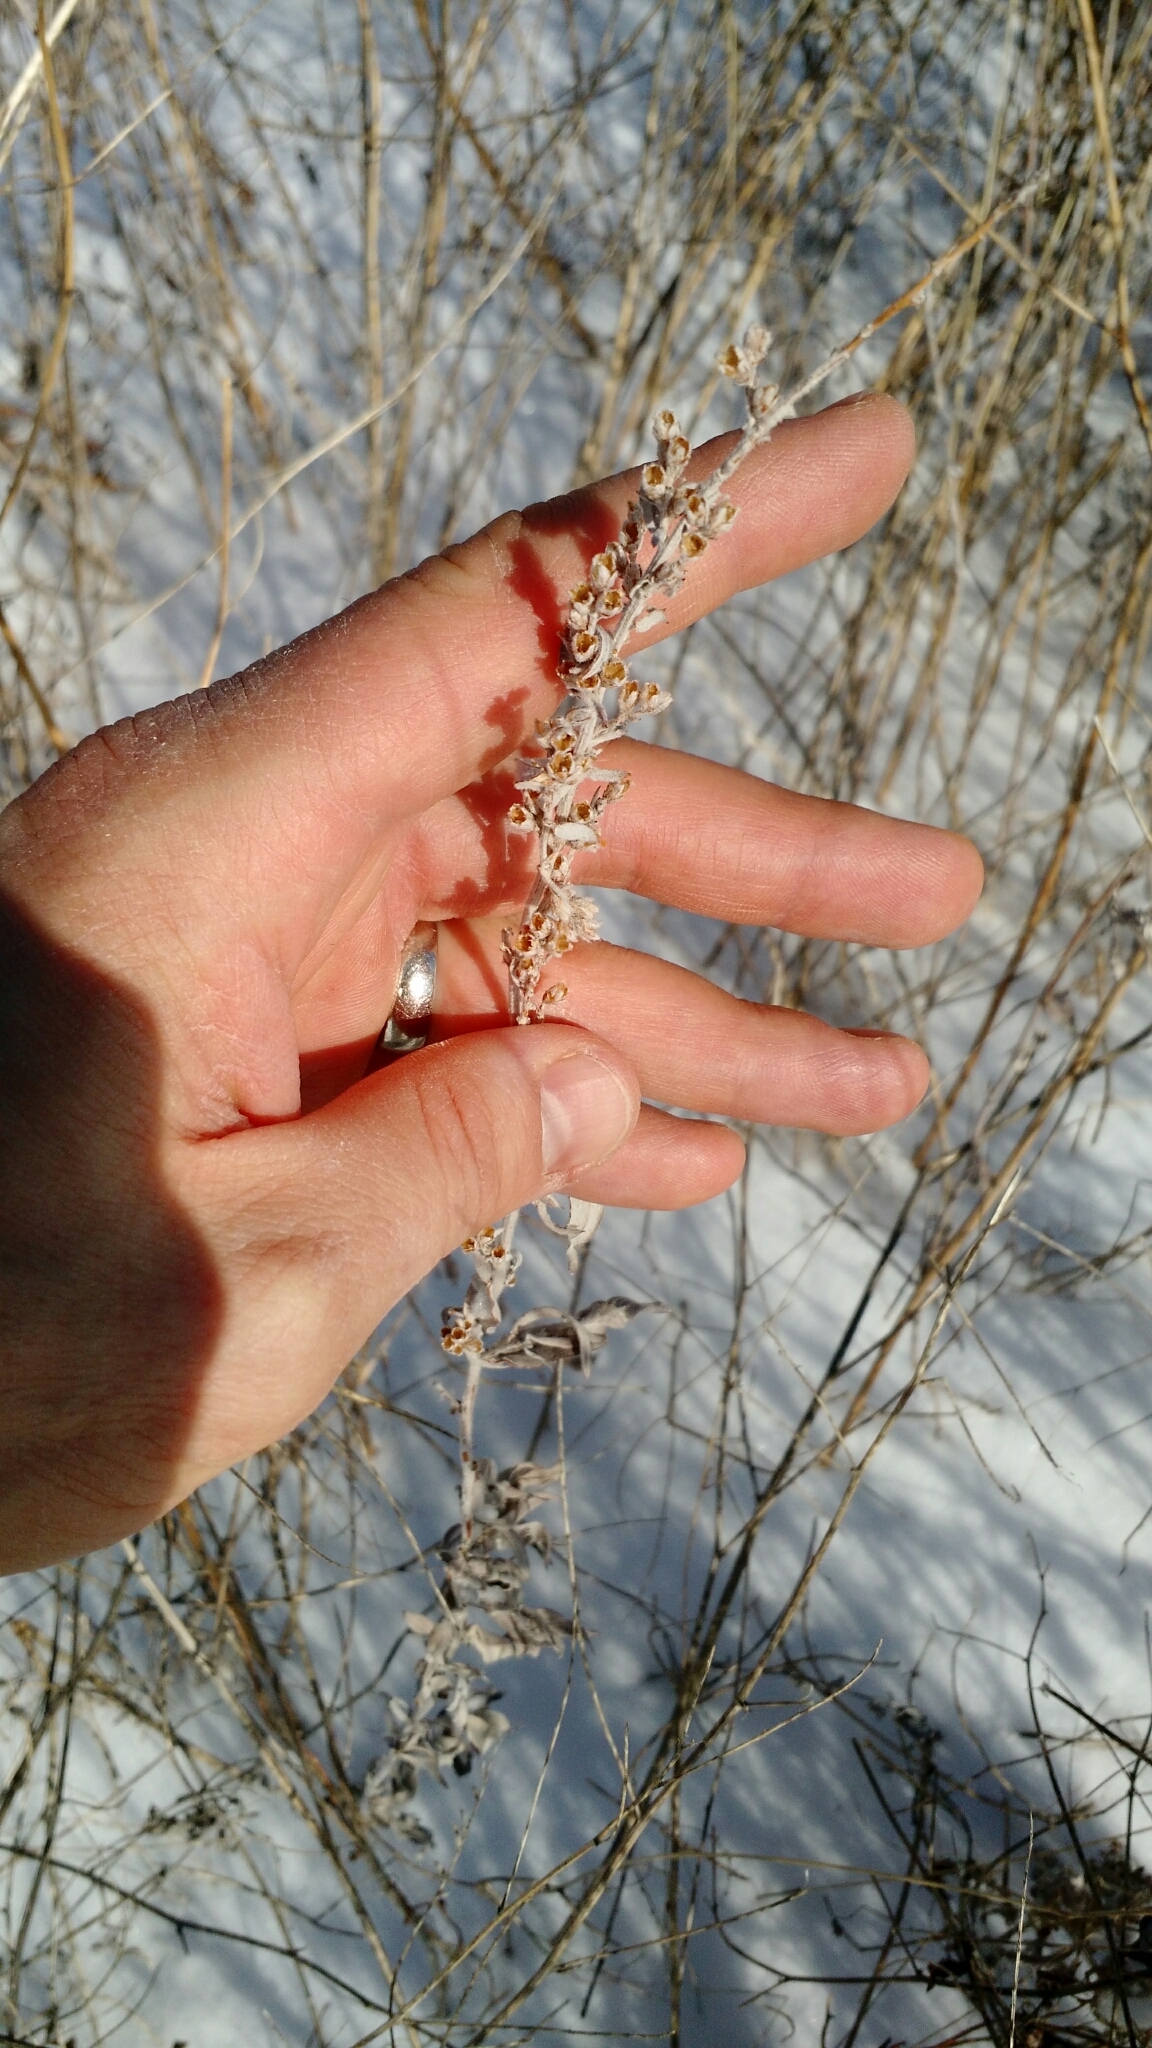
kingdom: Plantae
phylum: Tracheophyta
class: Magnoliopsida
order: Asterales
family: Asteraceae
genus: Artemisia
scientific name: Artemisia ludoviciana
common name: Western mugwort
